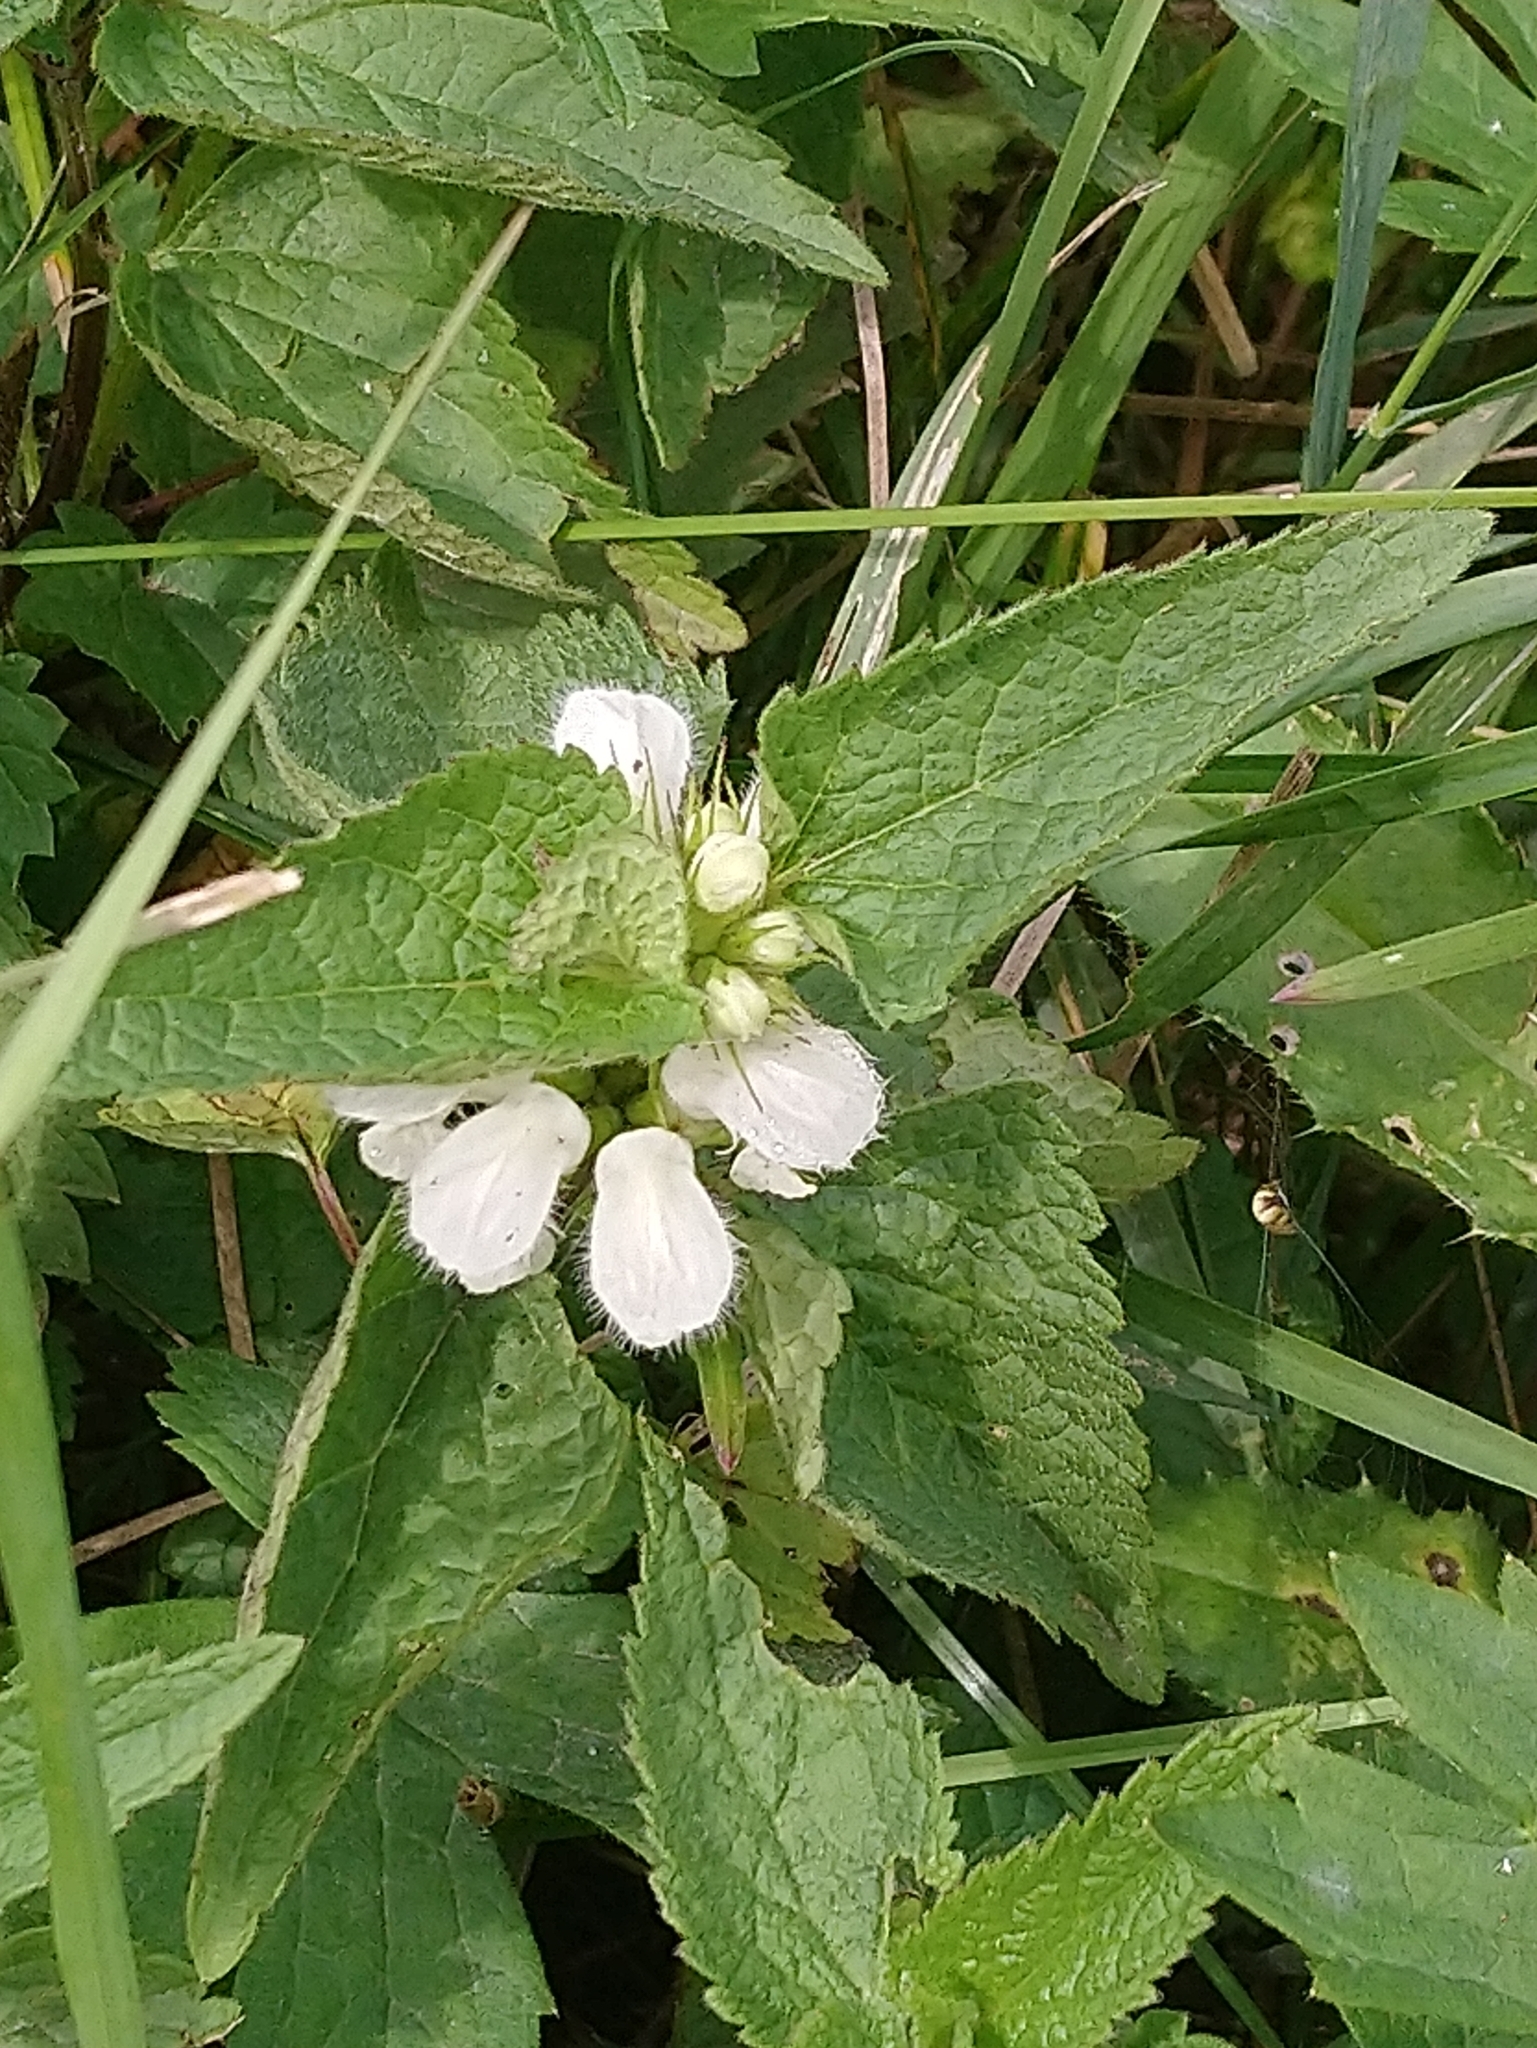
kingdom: Plantae
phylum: Tracheophyta
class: Magnoliopsida
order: Lamiales
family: Lamiaceae
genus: Lamium
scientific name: Lamium album
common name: White dead-nettle
